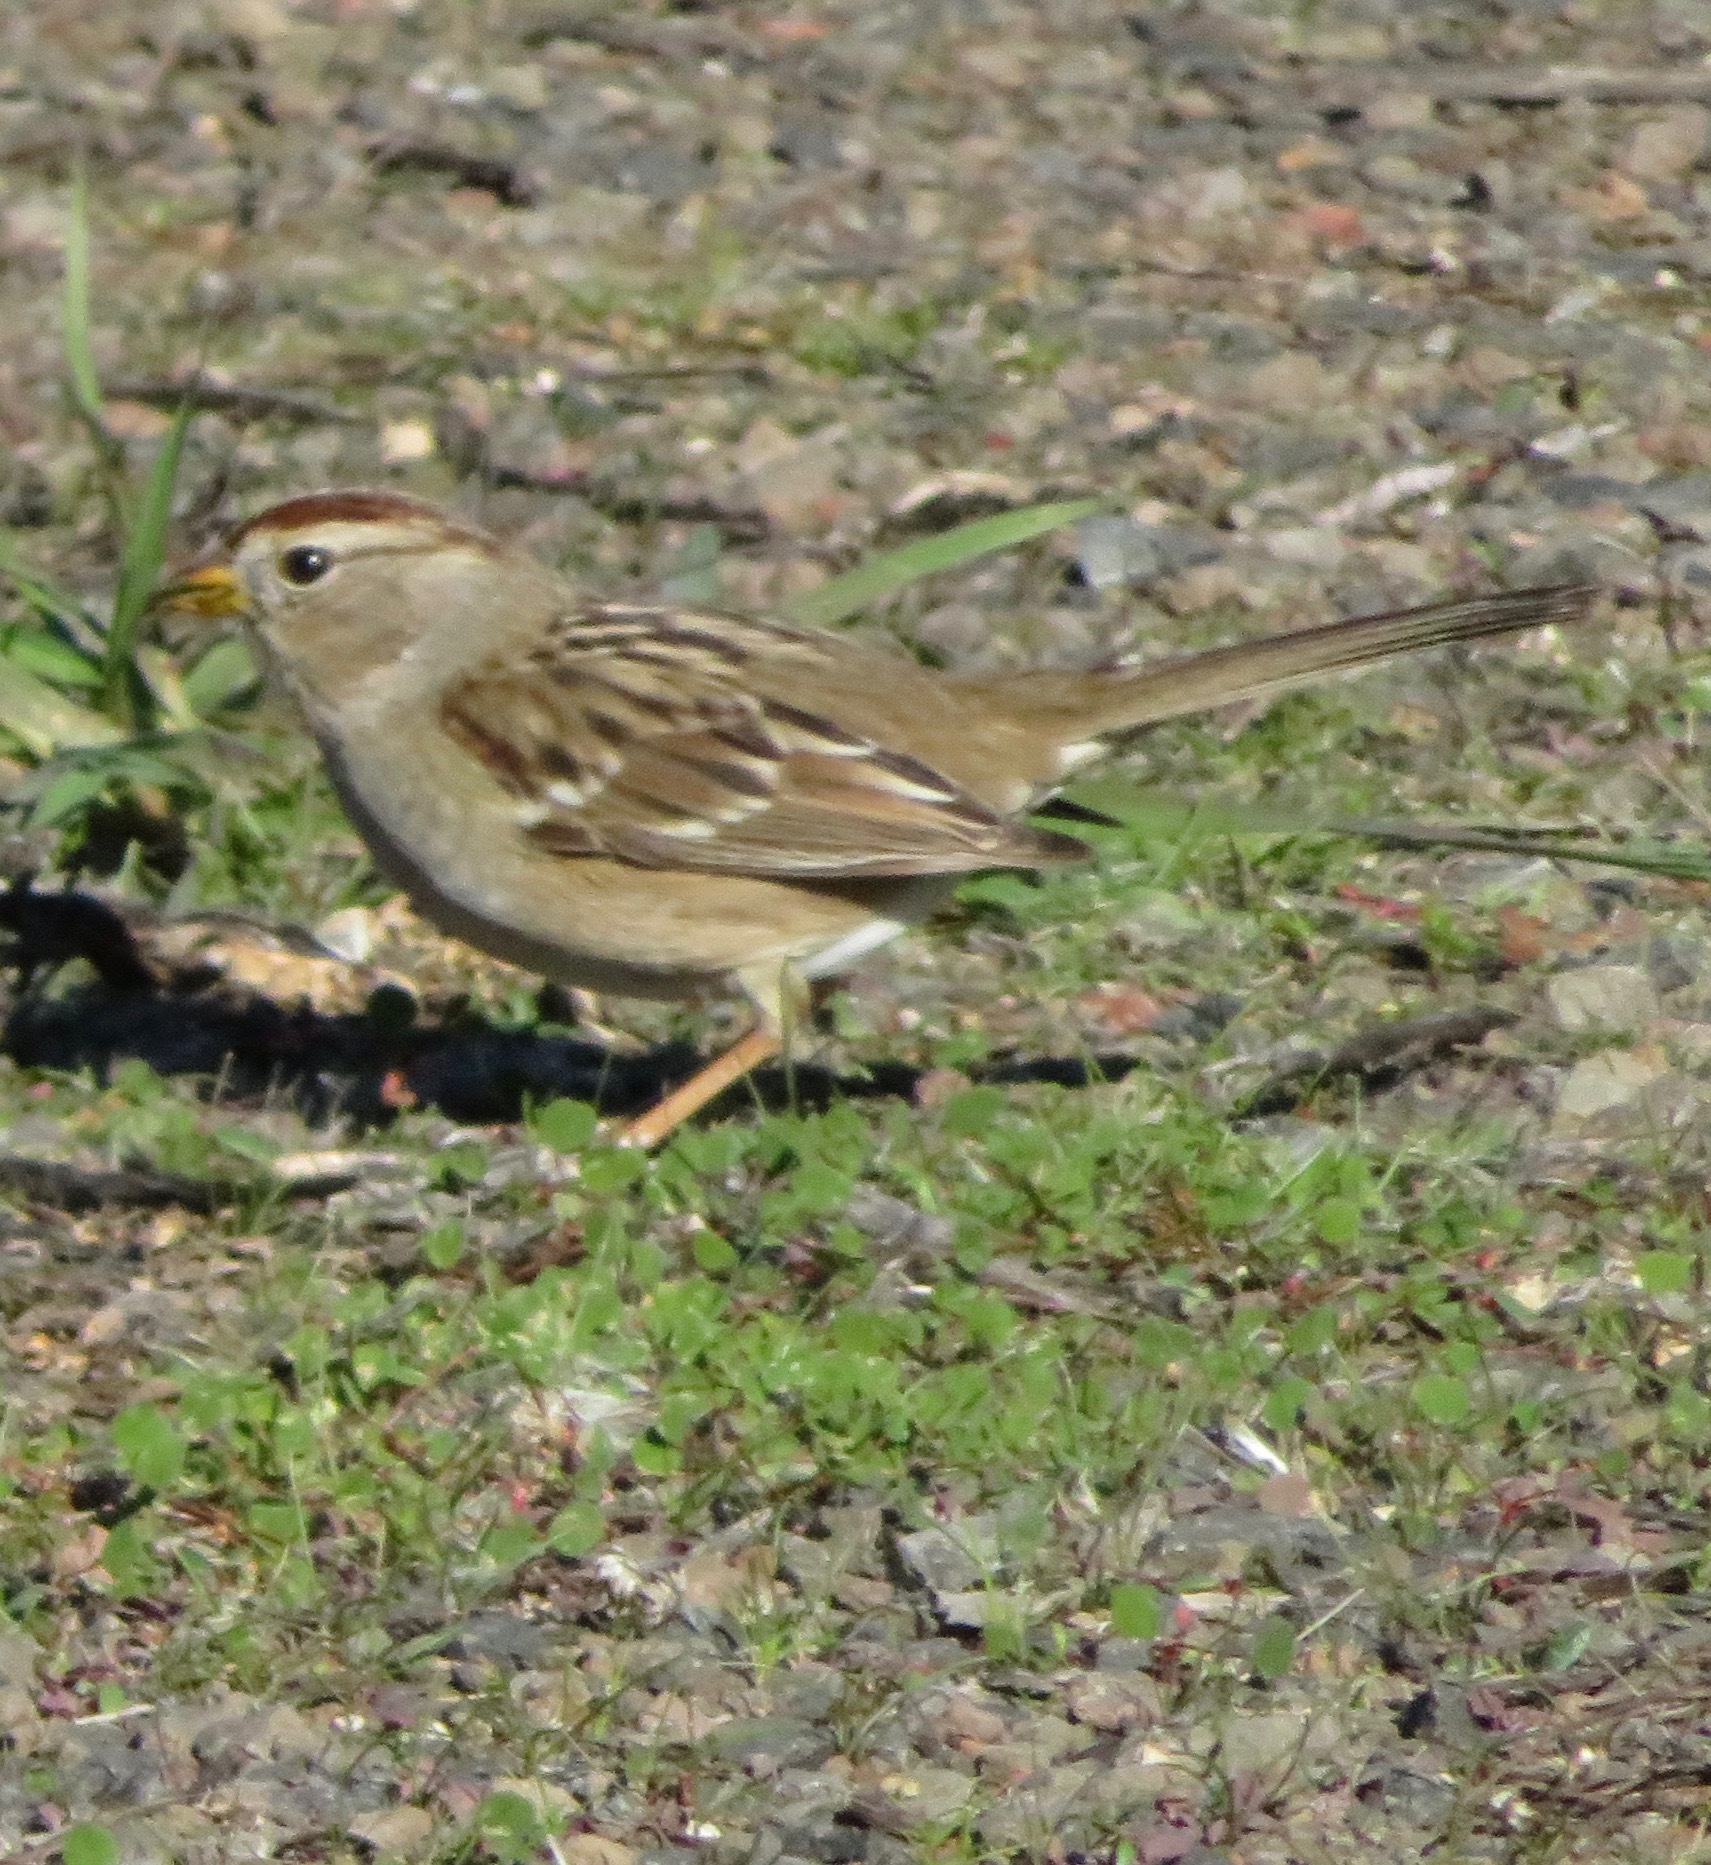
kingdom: Animalia
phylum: Chordata
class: Aves
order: Passeriformes
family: Passerellidae
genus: Zonotrichia
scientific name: Zonotrichia leucophrys
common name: White-crowned sparrow
